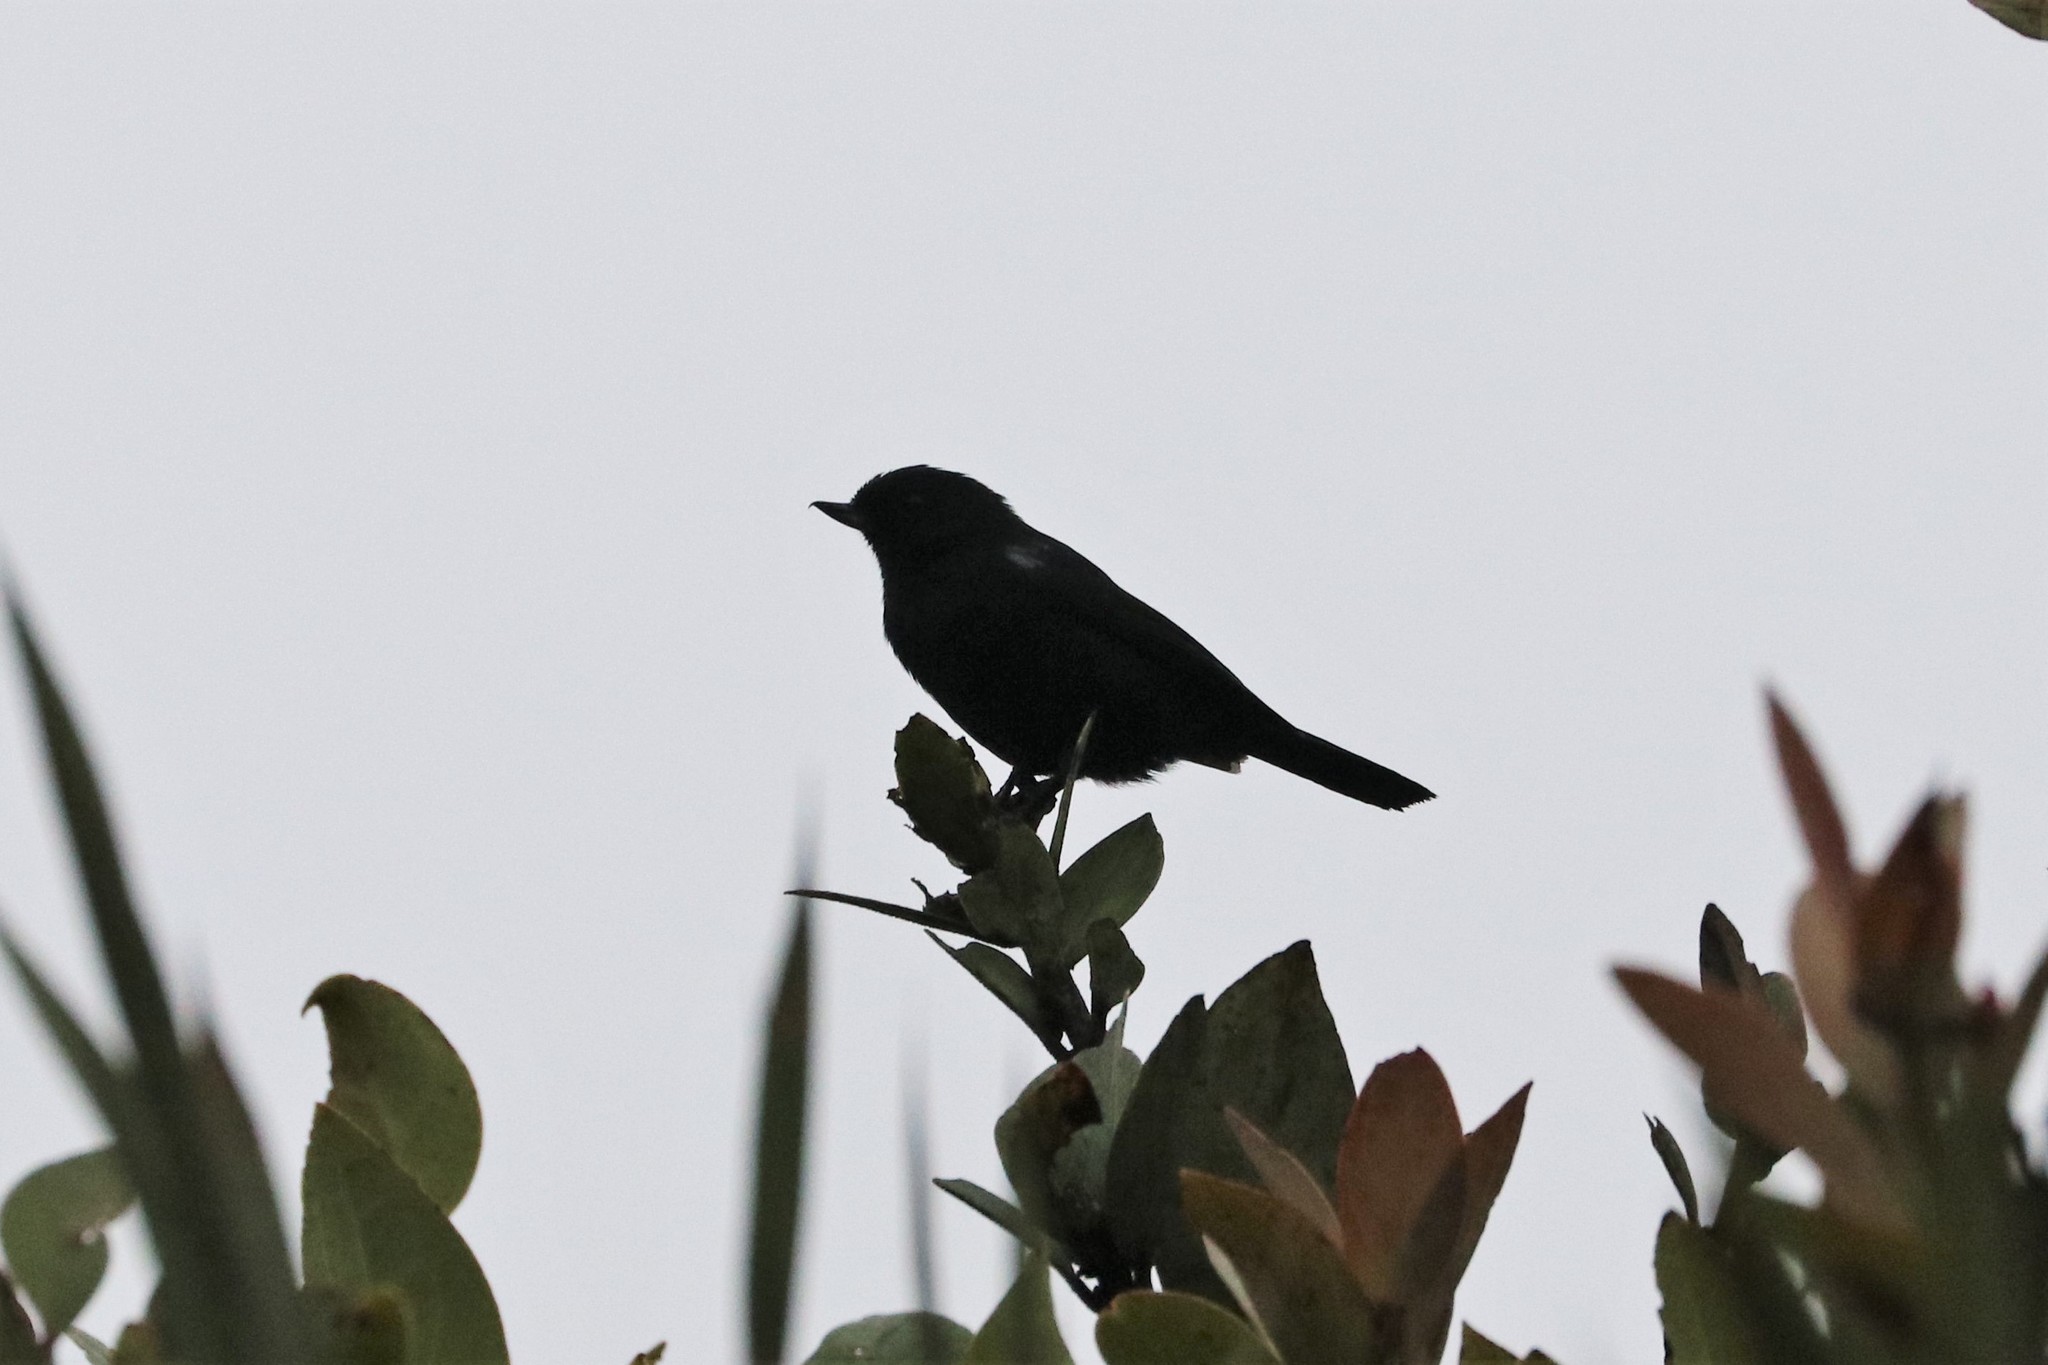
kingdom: Animalia
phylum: Chordata
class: Aves
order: Passeriformes
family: Thraupidae
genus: Diglossa
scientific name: Diglossa humeralis
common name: Black flowerpiercer
